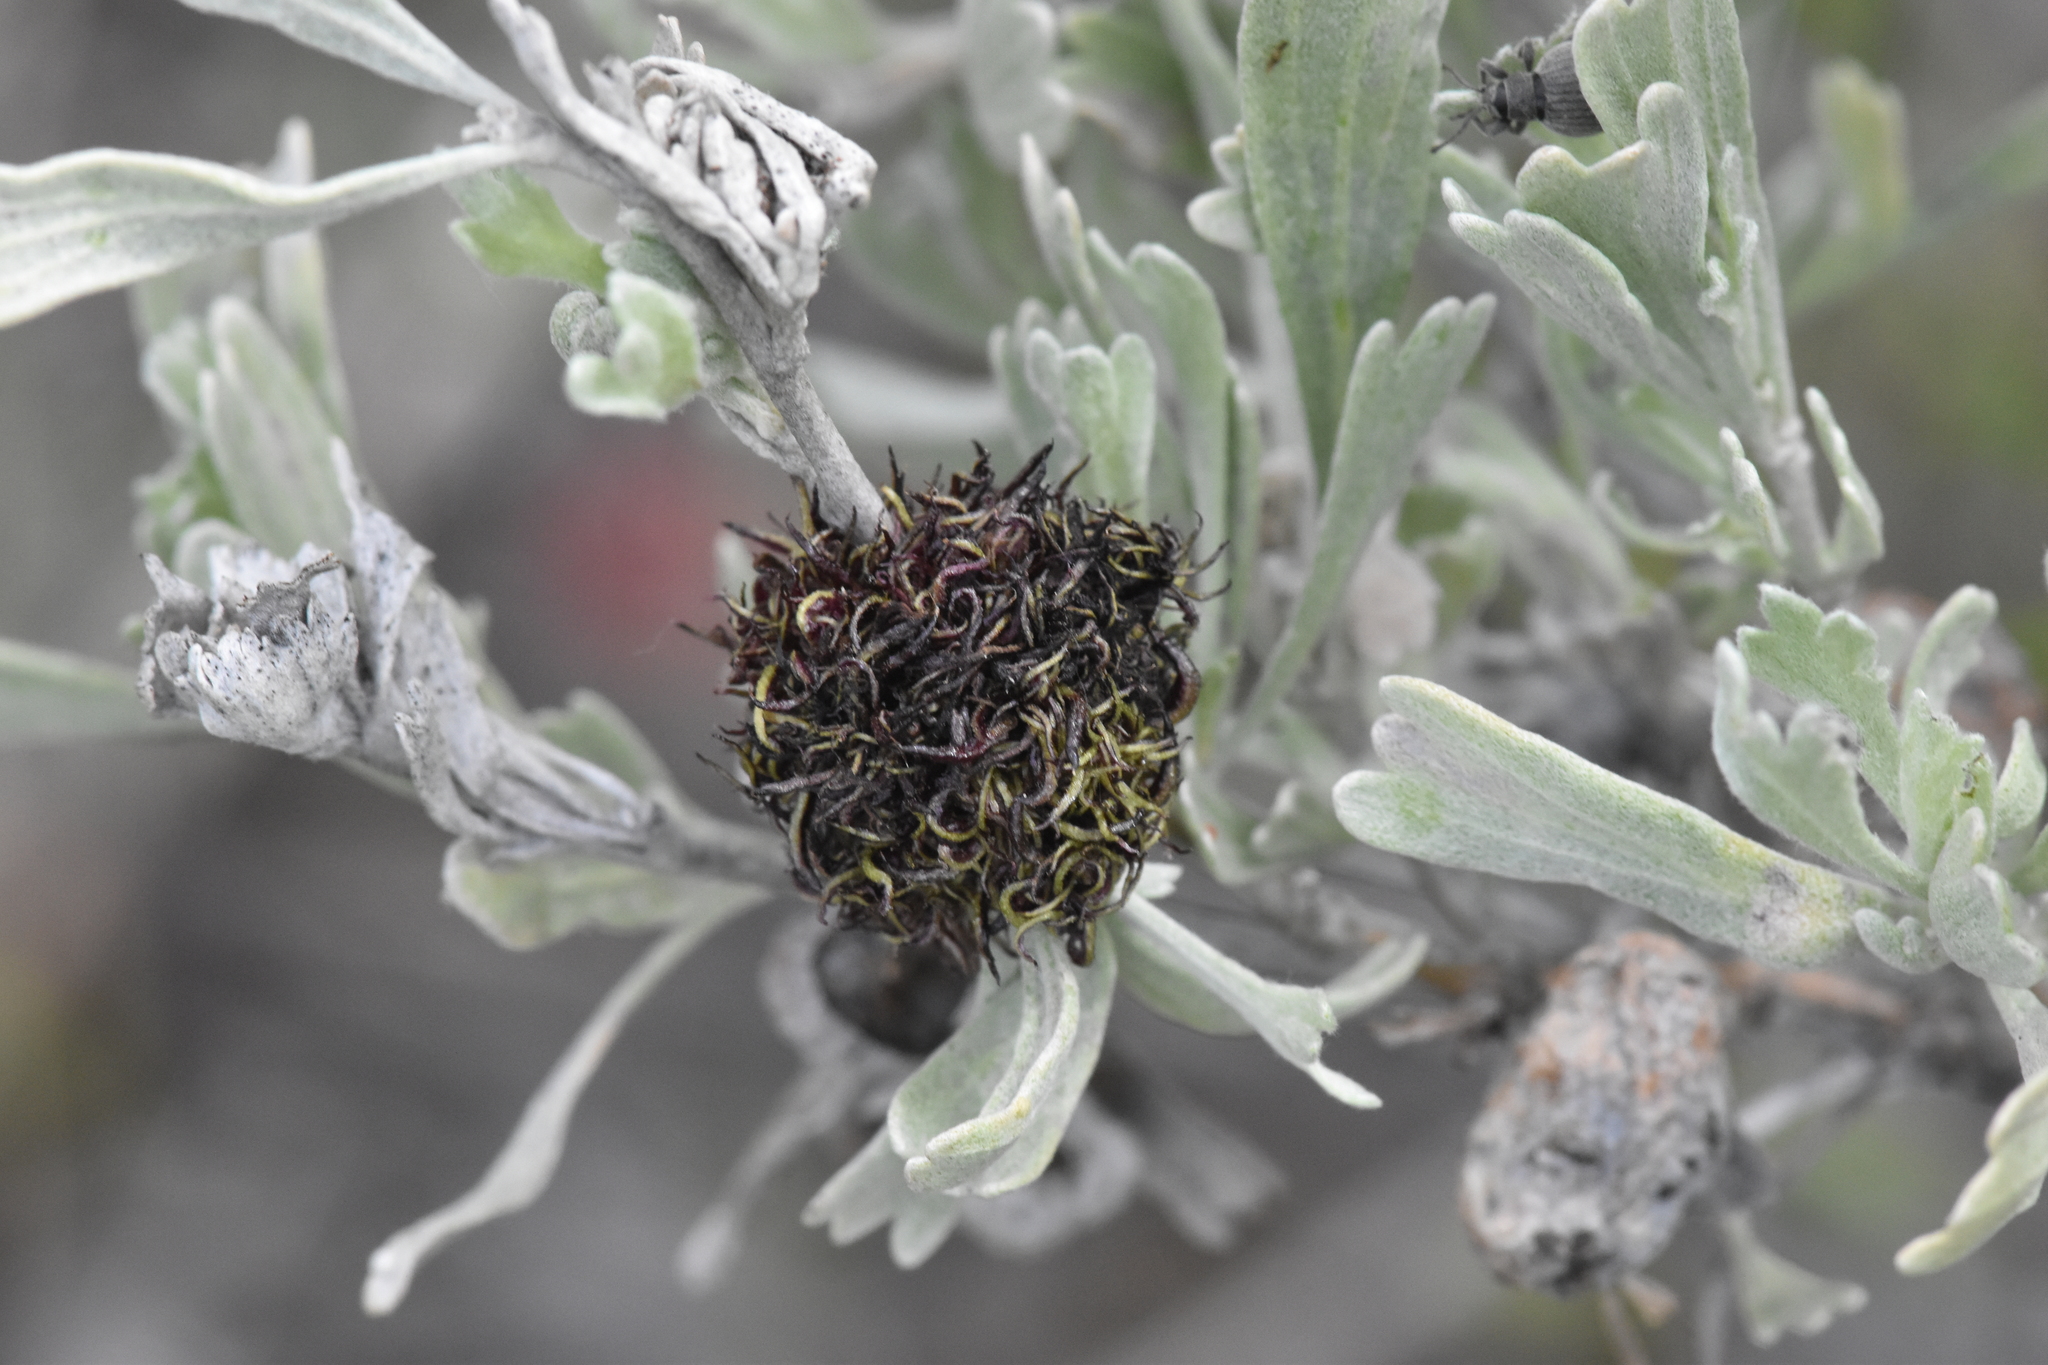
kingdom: Animalia
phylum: Arthropoda
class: Insecta
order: Diptera
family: Cecidomyiidae
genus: Rhopalomyia
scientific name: Rhopalomyia medusa
